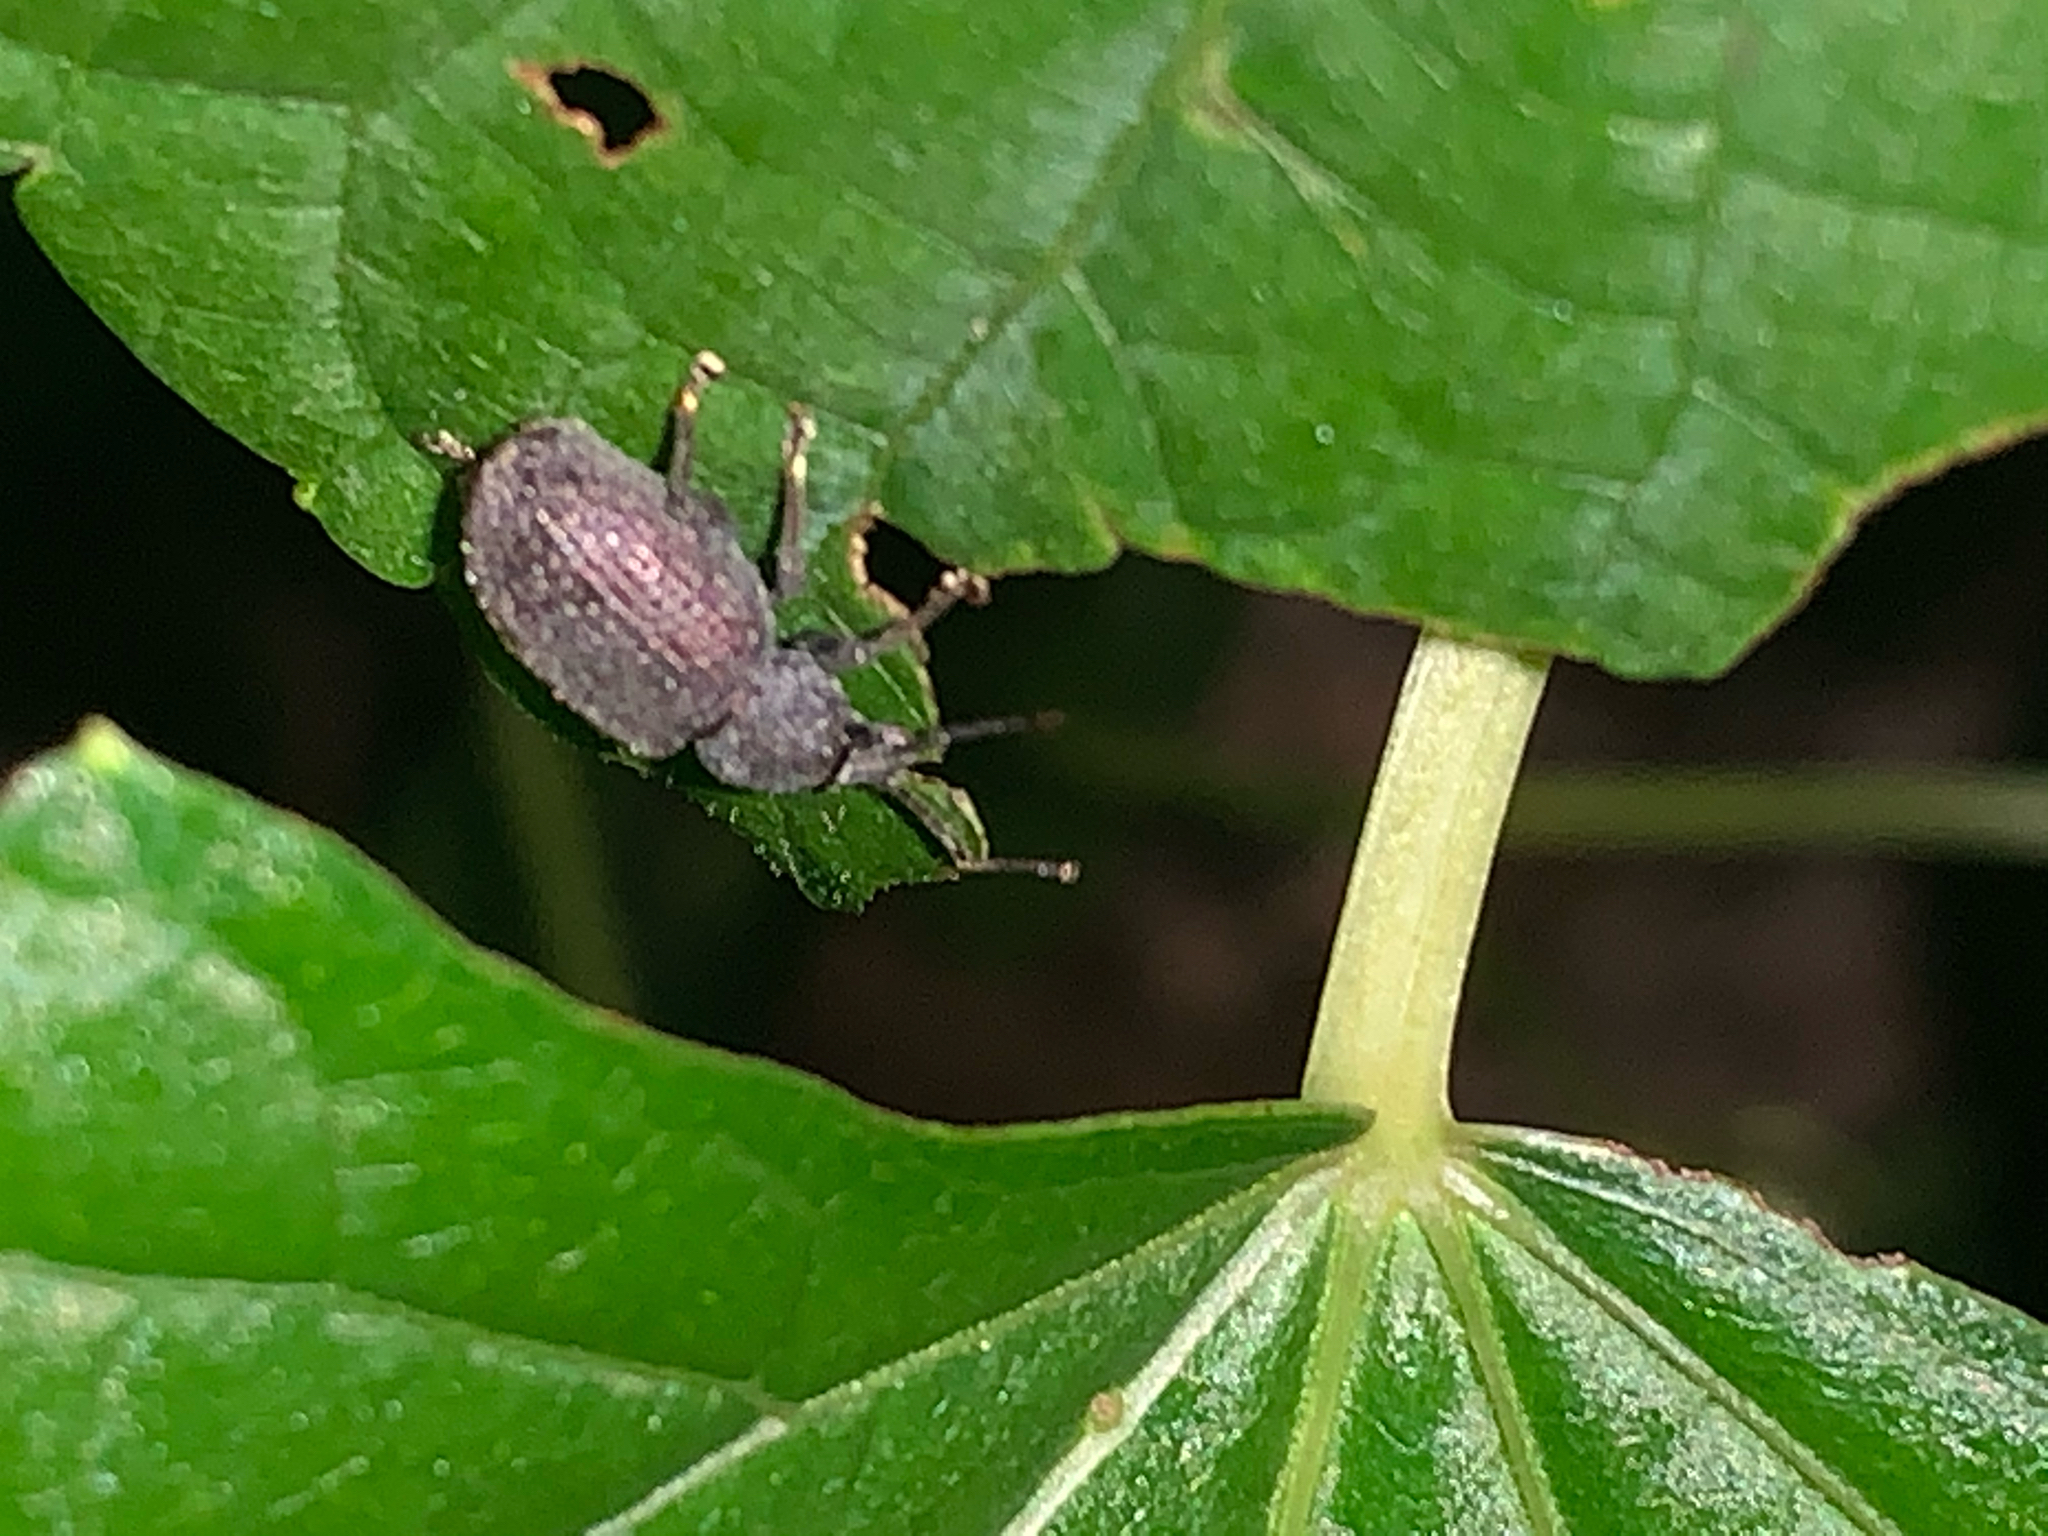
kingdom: Animalia
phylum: Arthropoda
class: Insecta
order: Coleoptera
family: Curculionidae
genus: Otiorhynchus
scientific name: Otiorhynchus rugosostriatus
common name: Weevil
